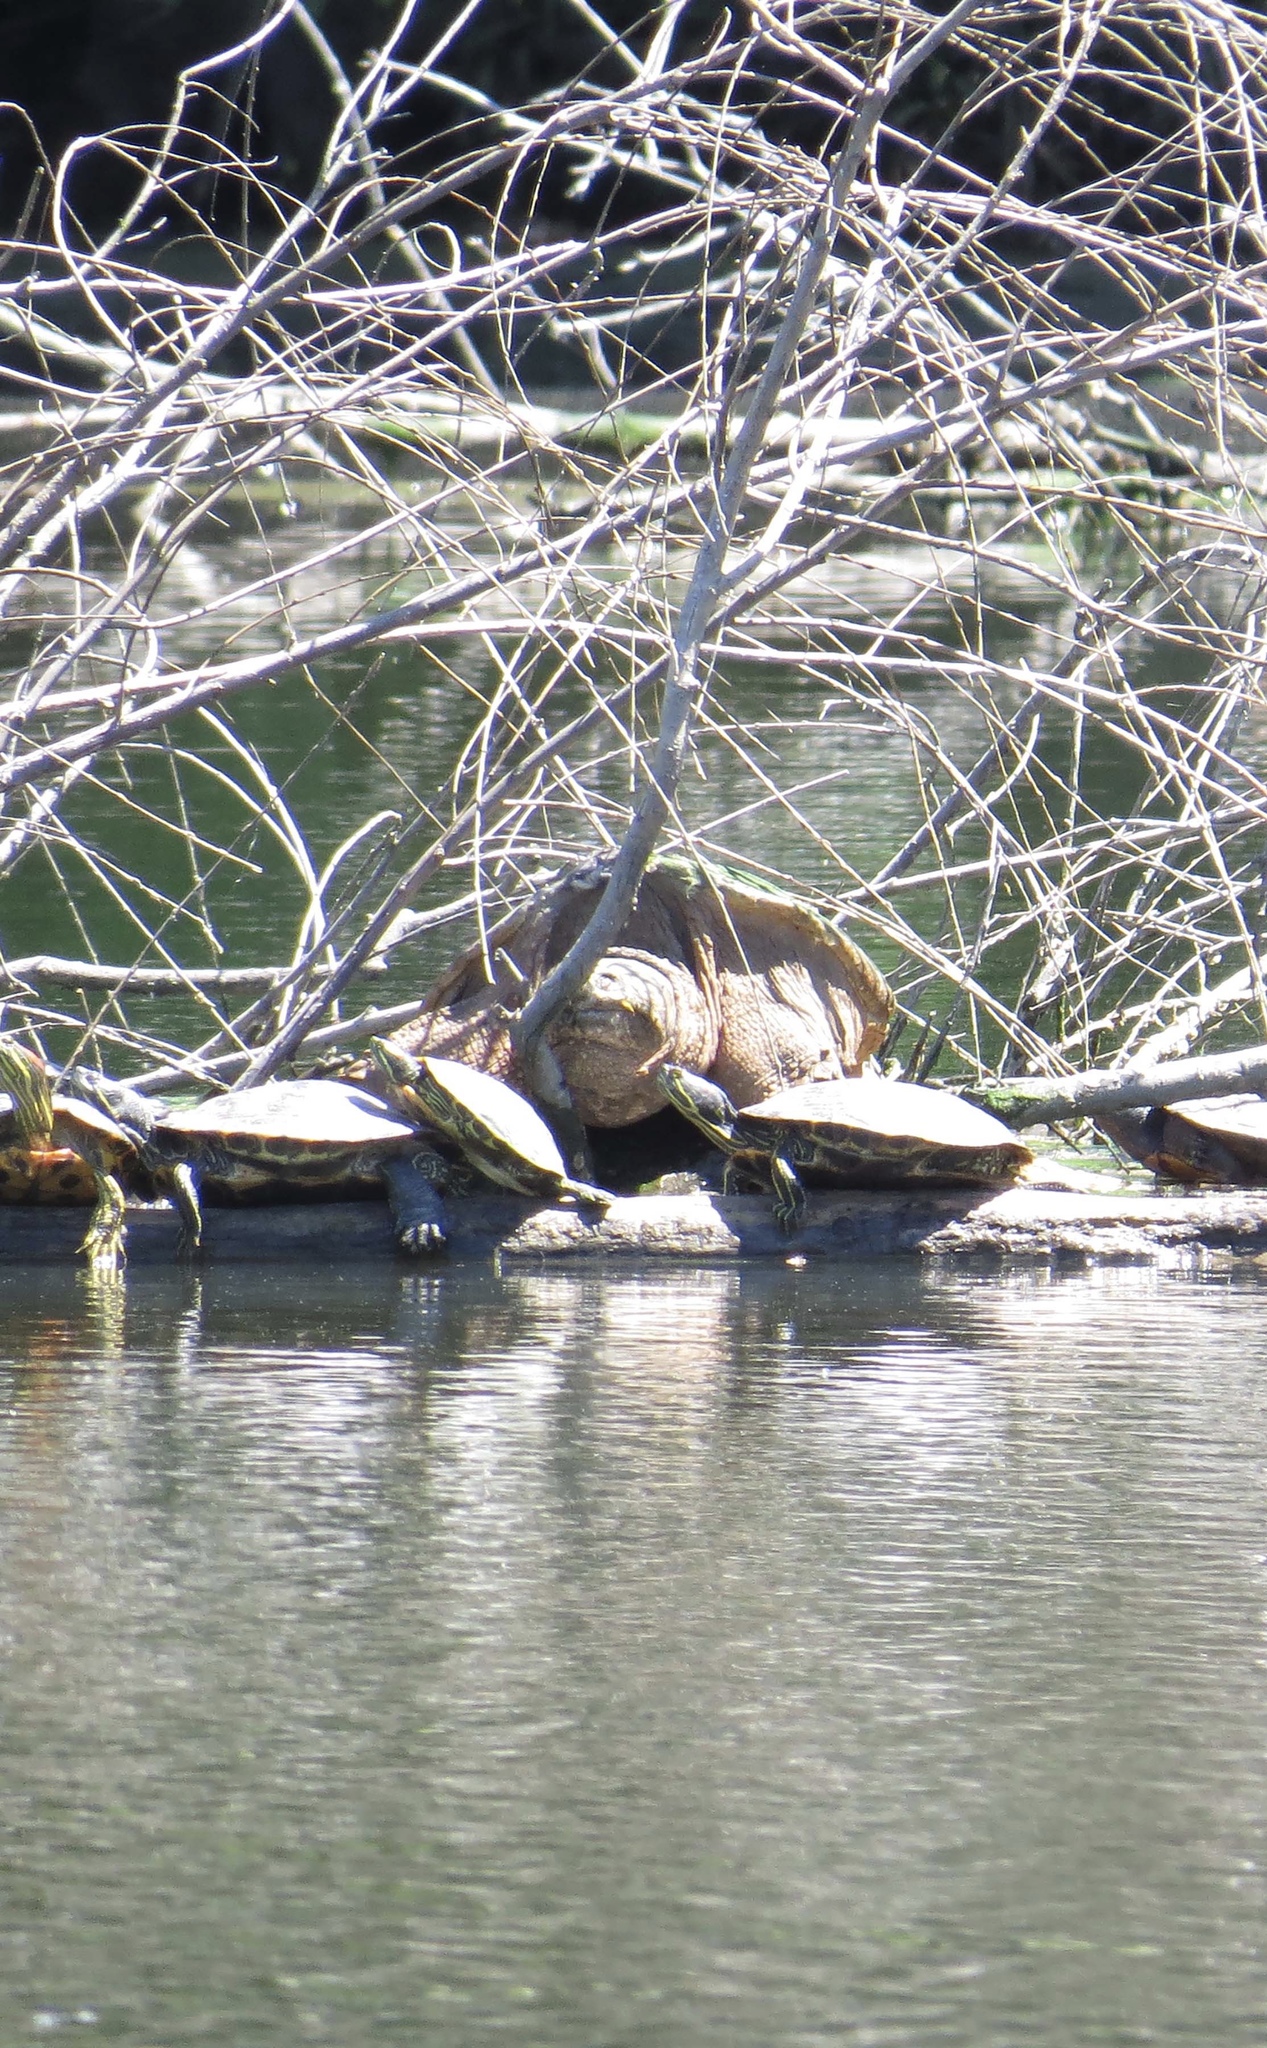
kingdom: Animalia
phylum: Chordata
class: Testudines
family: Chelydridae
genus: Chelydra
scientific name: Chelydra serpentina
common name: Common snapping turtle
